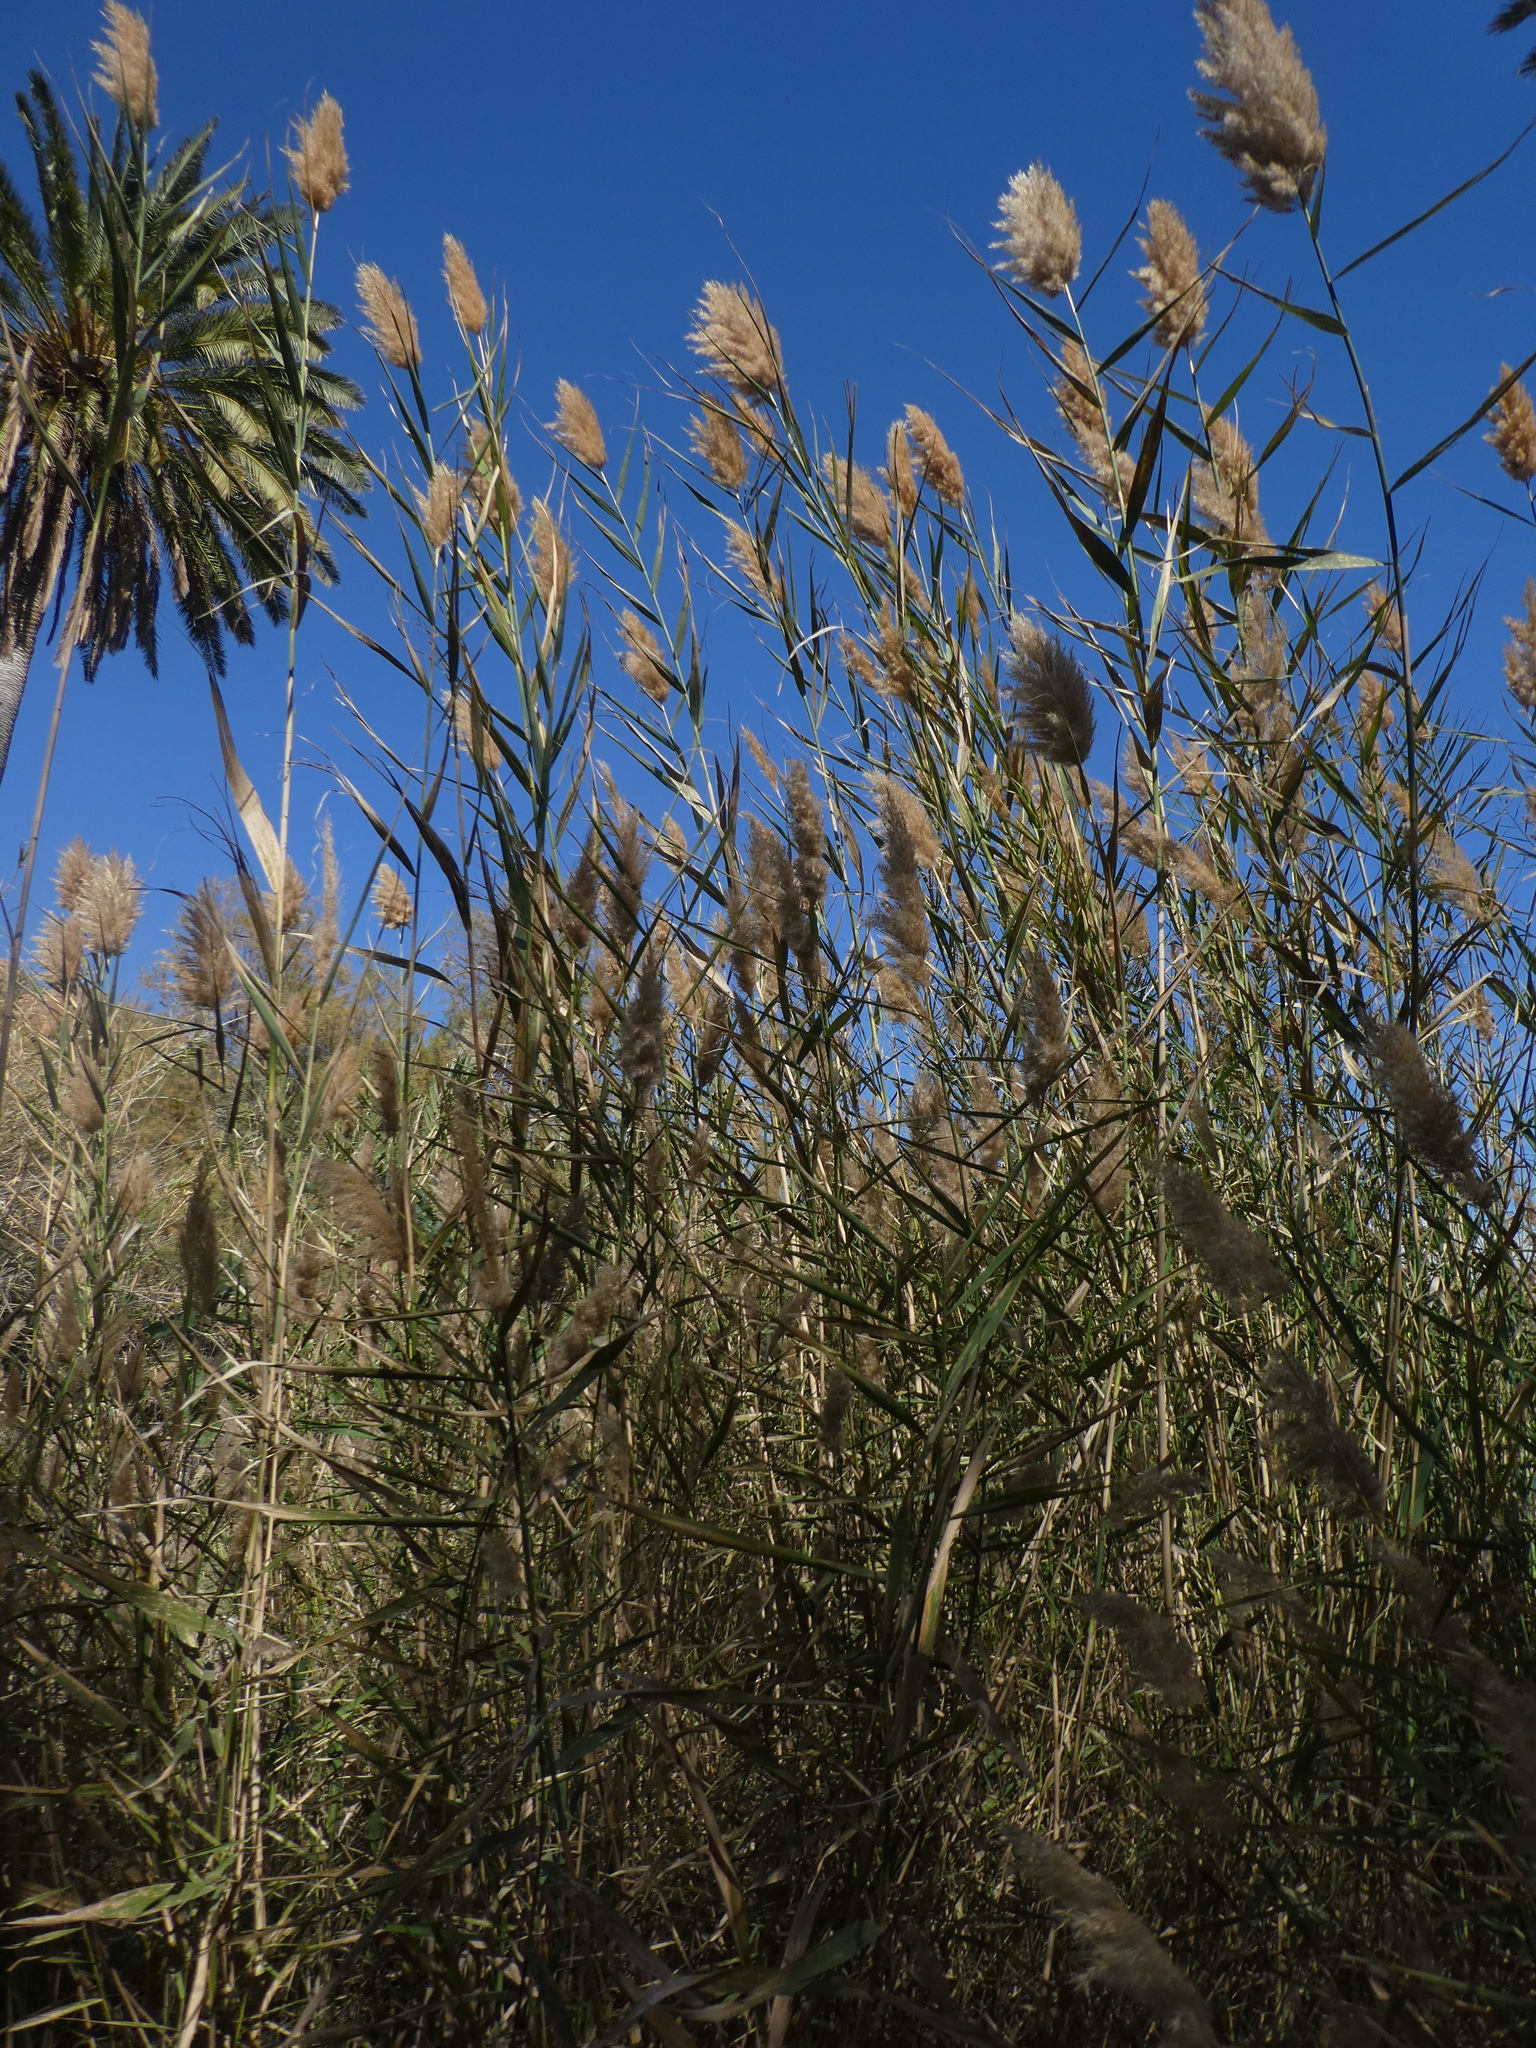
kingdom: Plantae
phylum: Tracheophyta
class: Liliopsida
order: Poales
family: Poaceae
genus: Arundo
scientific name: Arundo donax
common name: Giant reed
